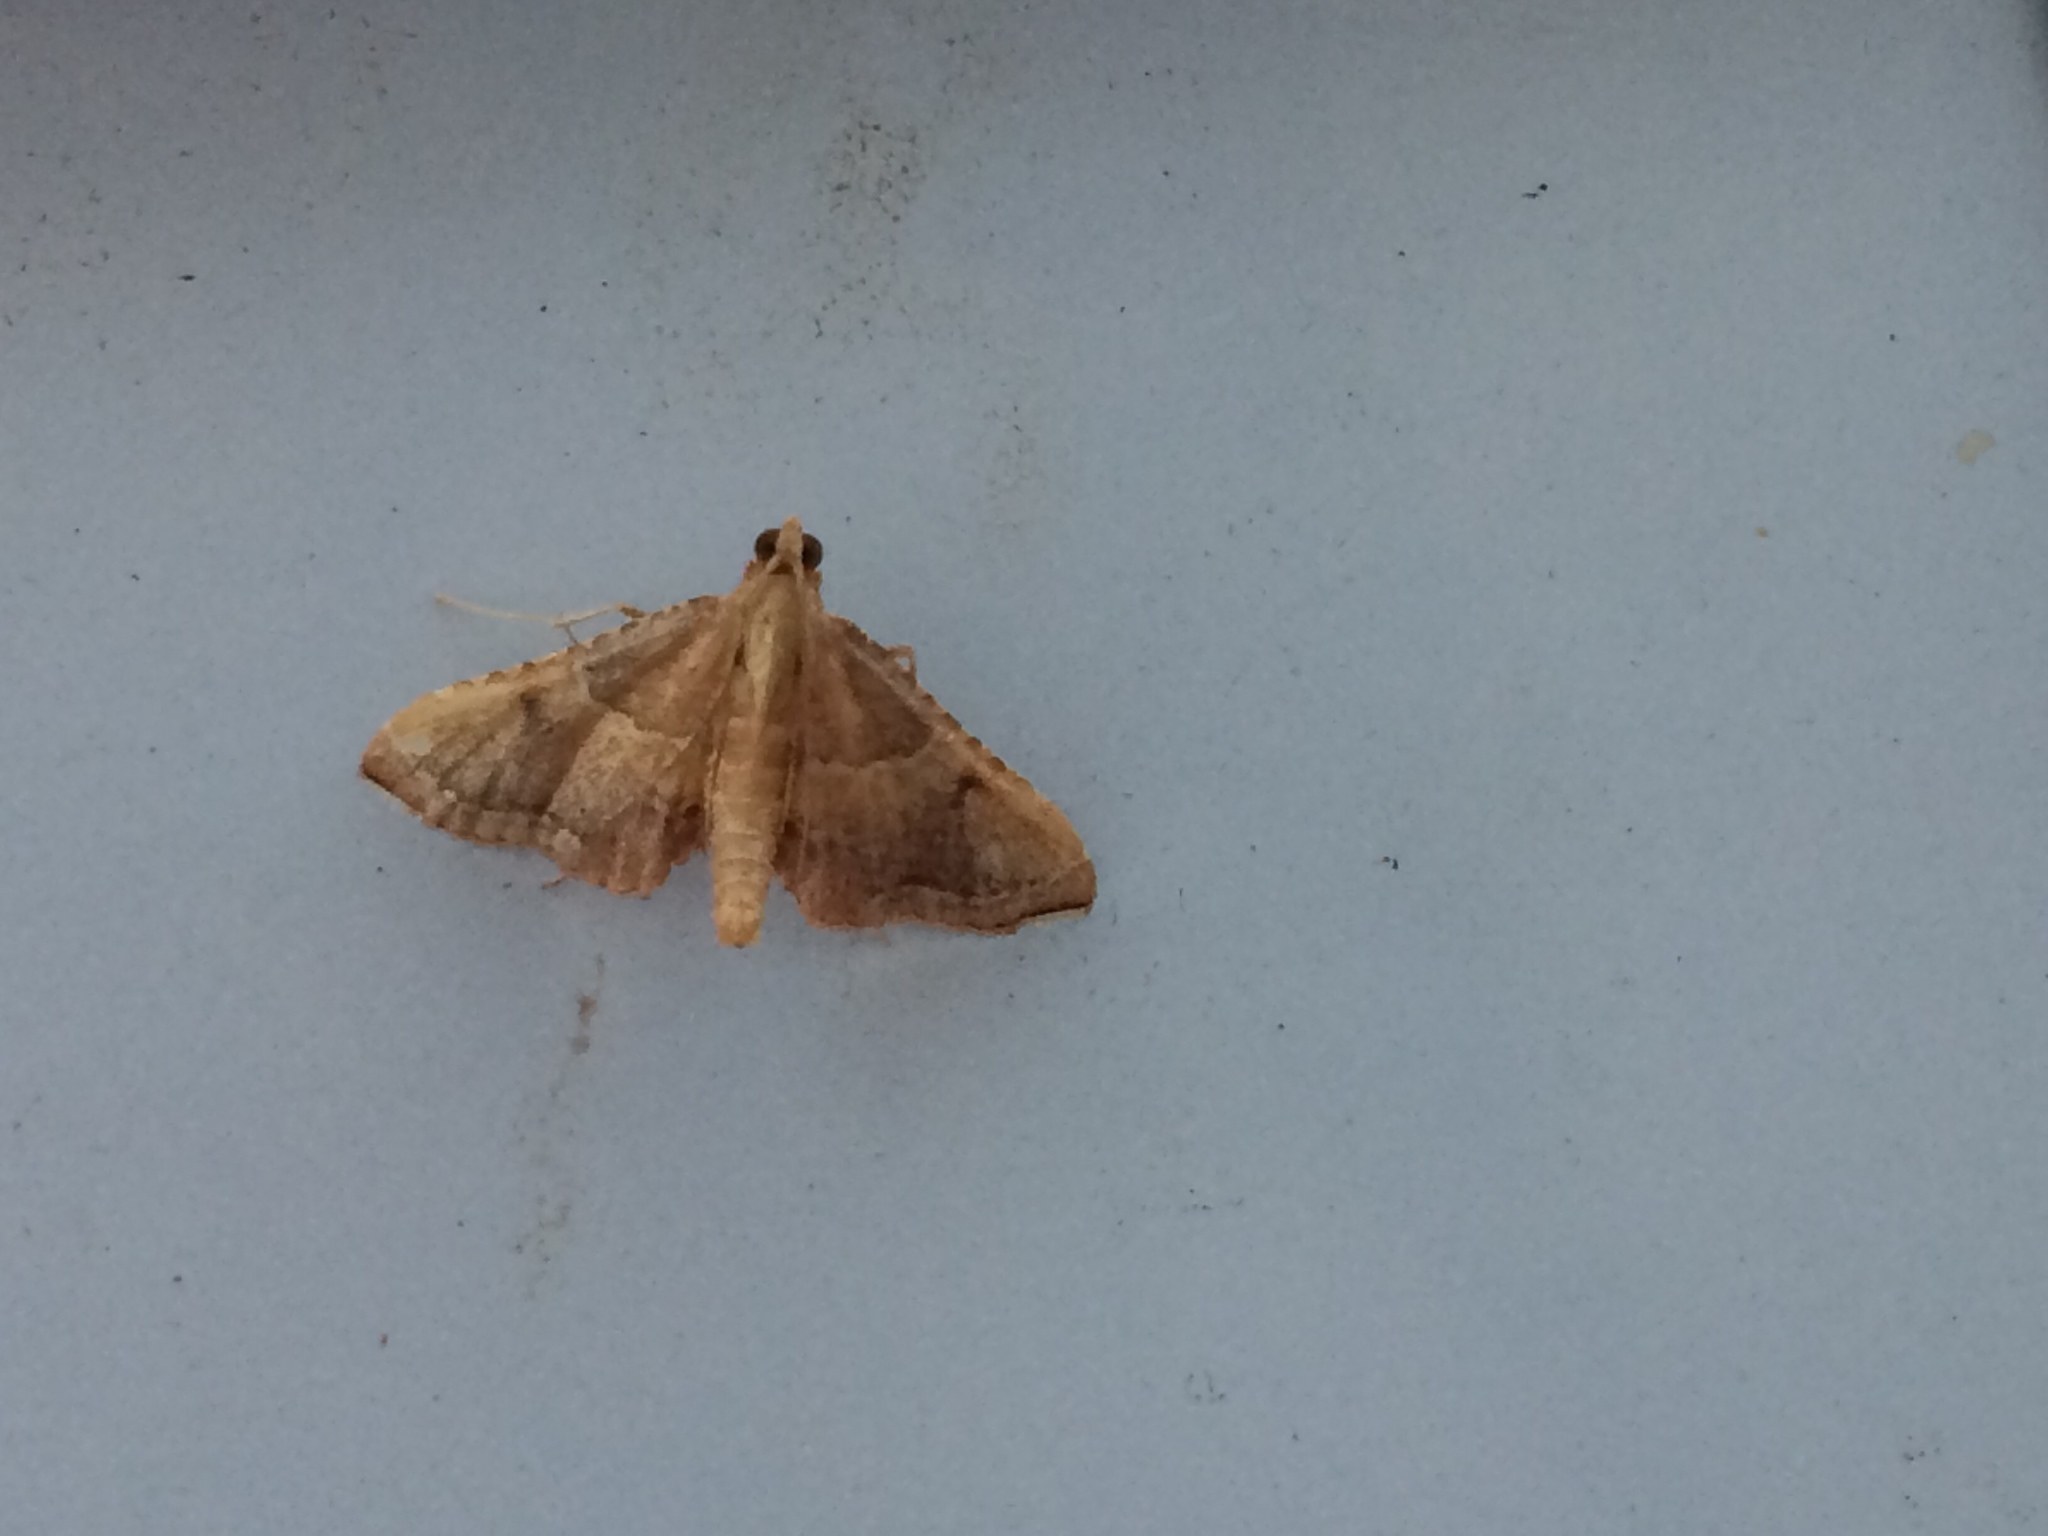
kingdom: Animalia
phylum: Arthropoda
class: Insecta
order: Lepidoptera
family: Pyralidae
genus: Endotricha
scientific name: Endotricha flammealis
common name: Rosy tabby
